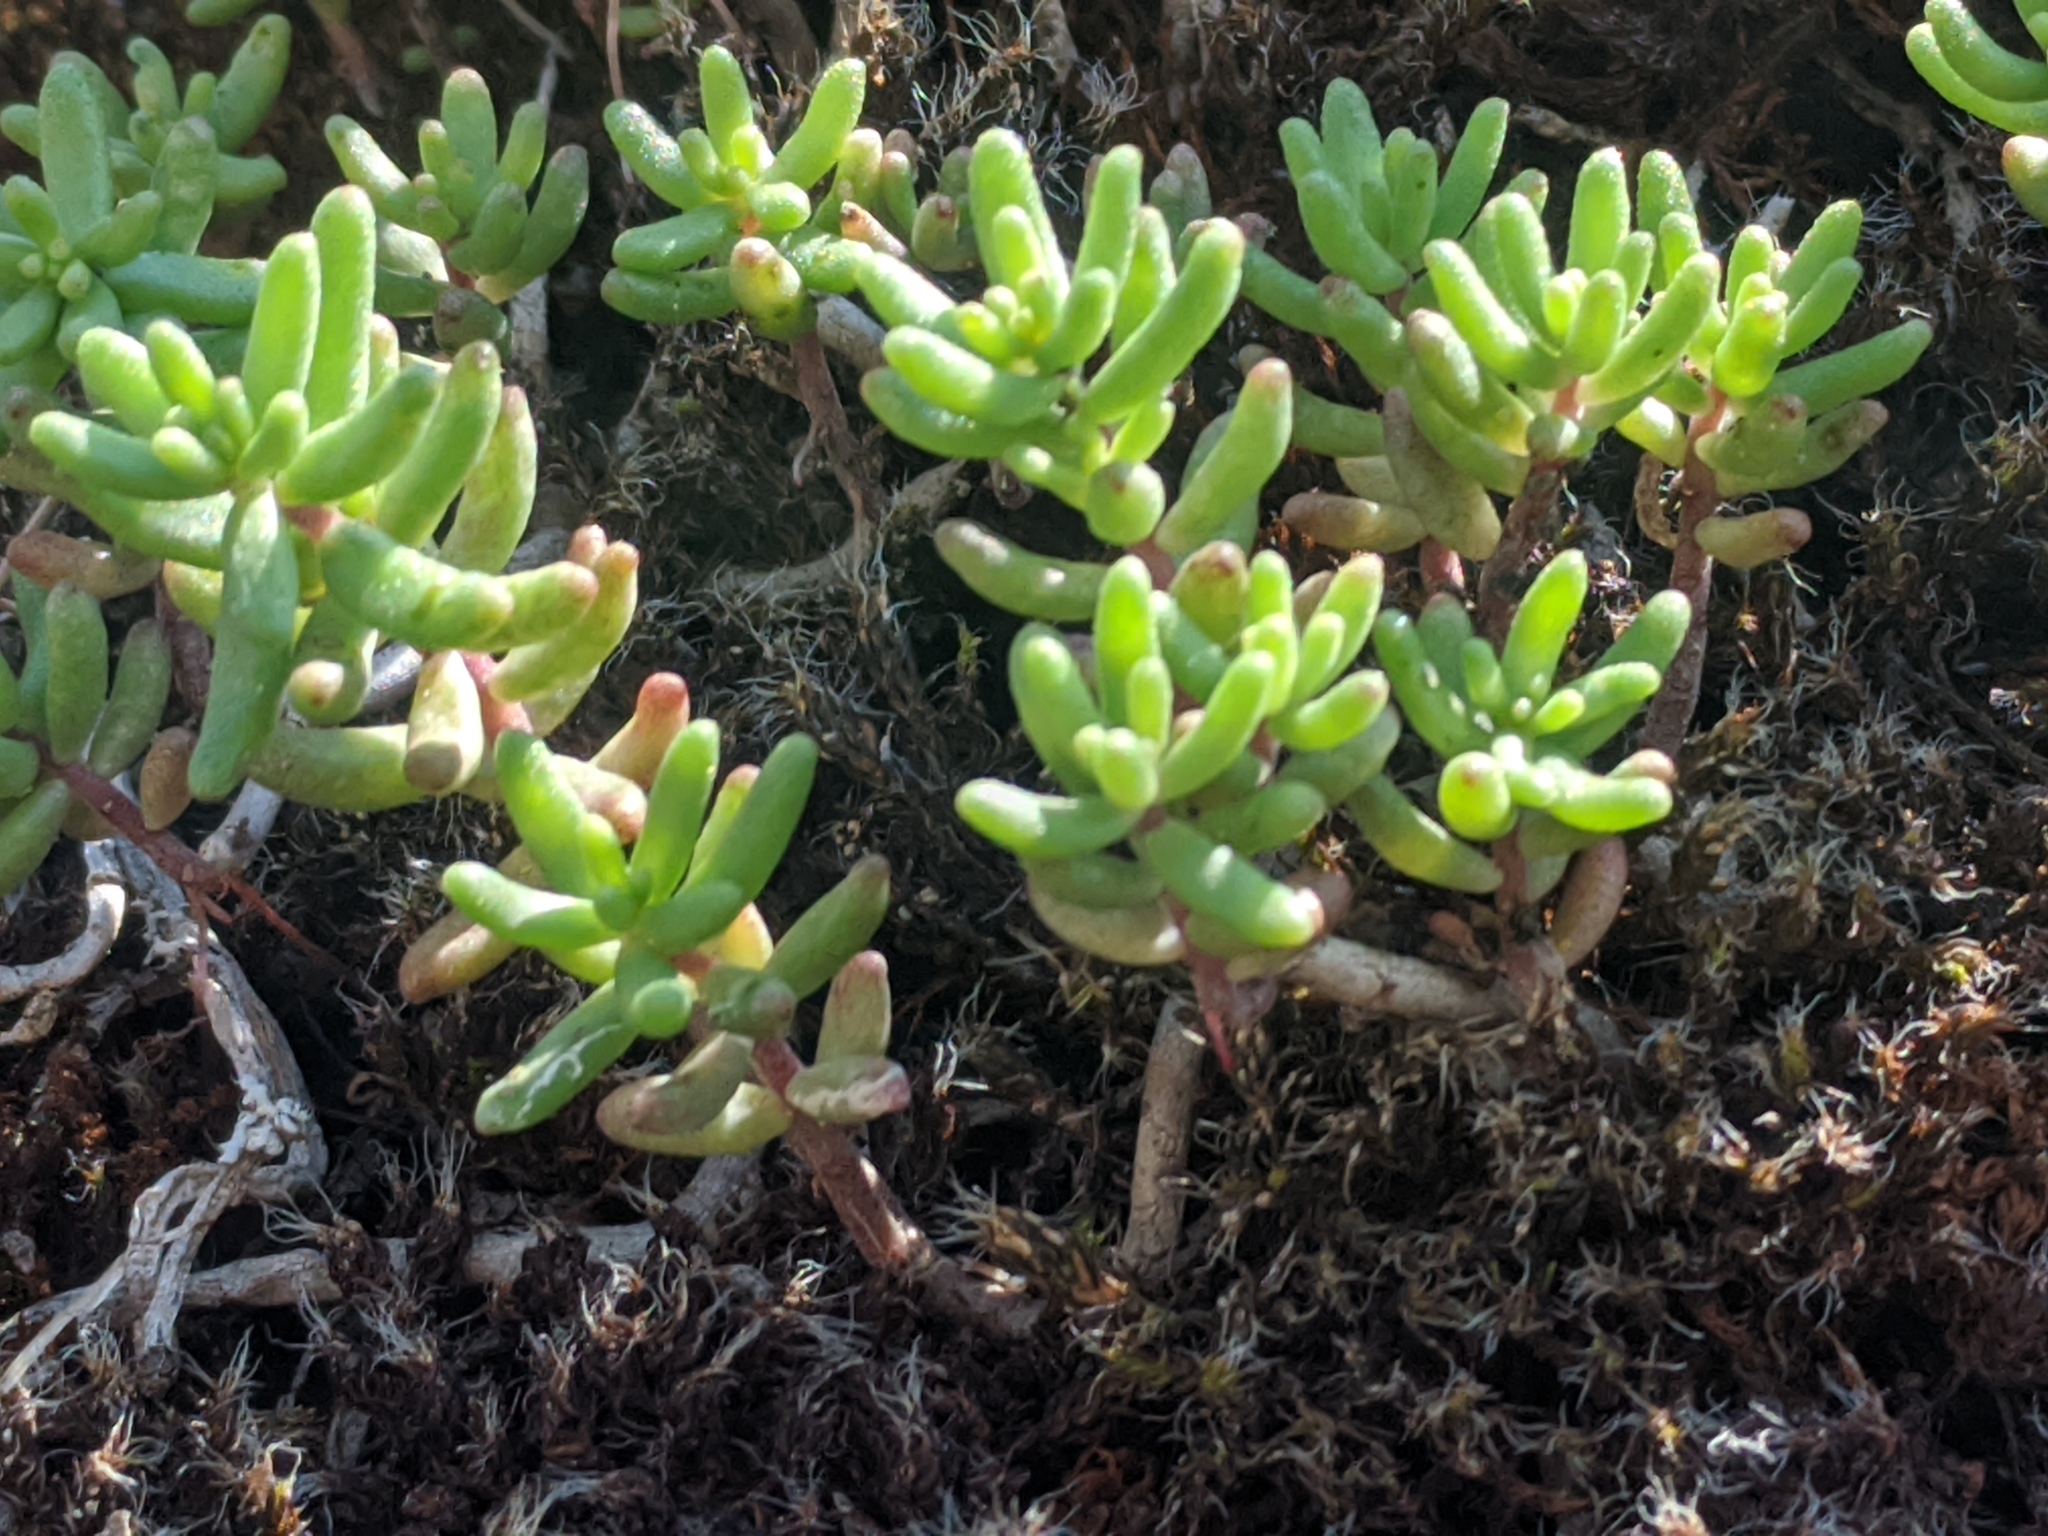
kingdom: Plantae
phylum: Tracheophyta
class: Magnoliopsida
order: Saxifragales
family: Crassulaceae
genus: Sedum
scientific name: Sedum album
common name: White stonecrop
